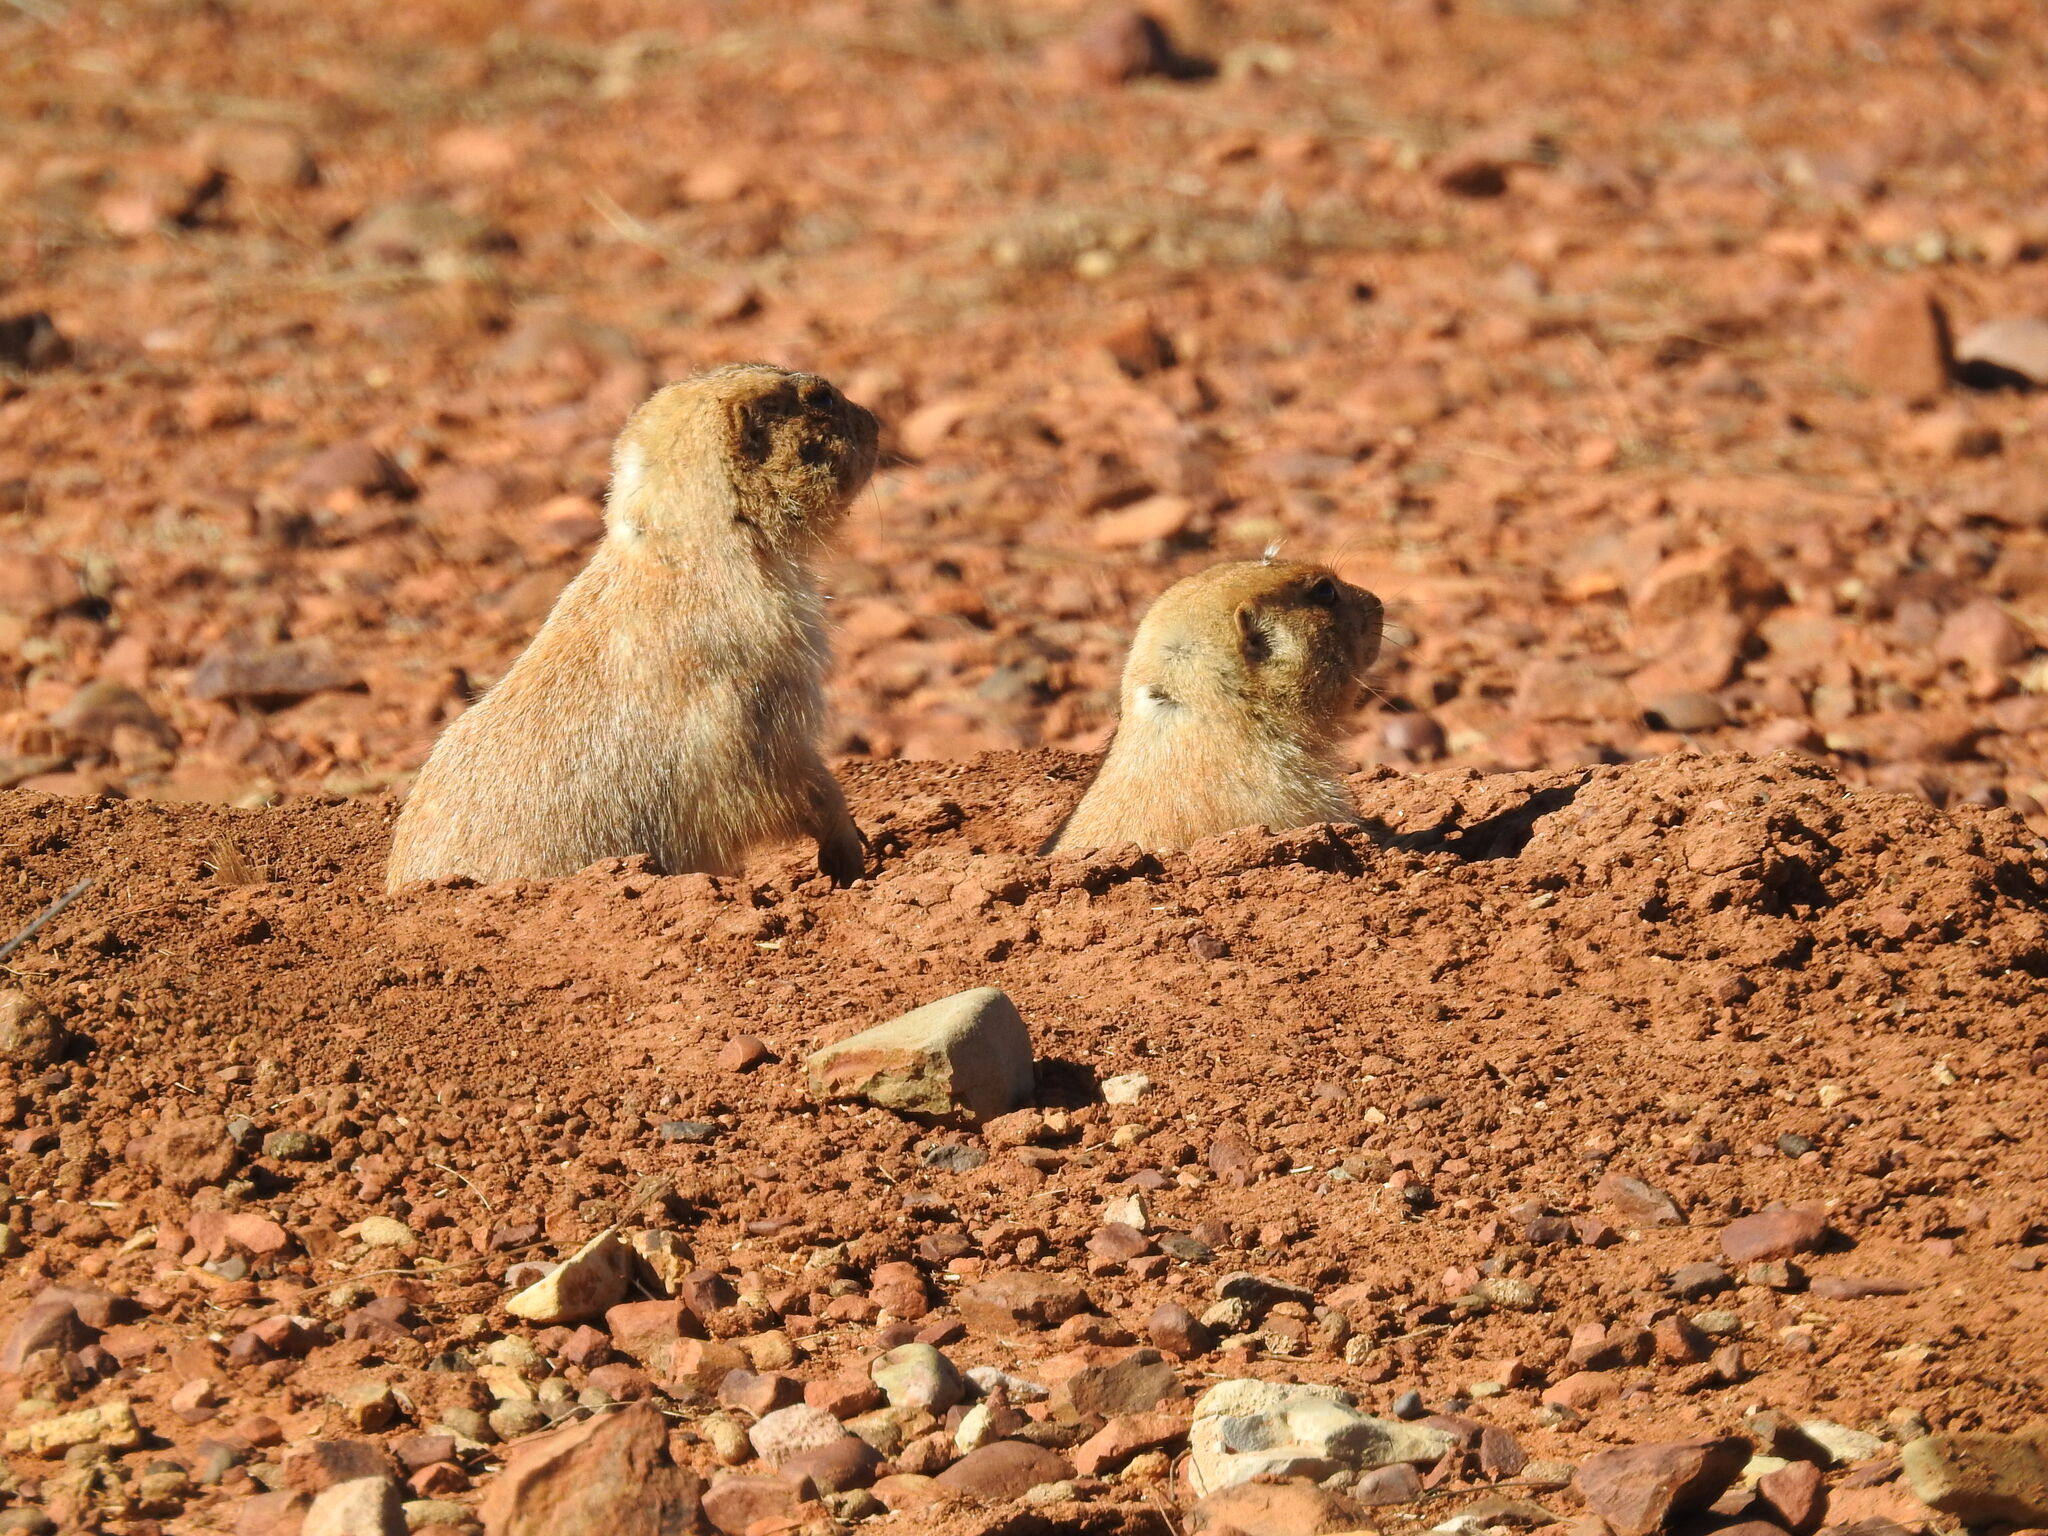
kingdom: Animalia
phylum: Chordata
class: Mammalia
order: Rodentia
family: Sciuridae
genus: Cynomys
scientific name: Cynomys ludovicianus
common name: Black-tailed prairie dog
